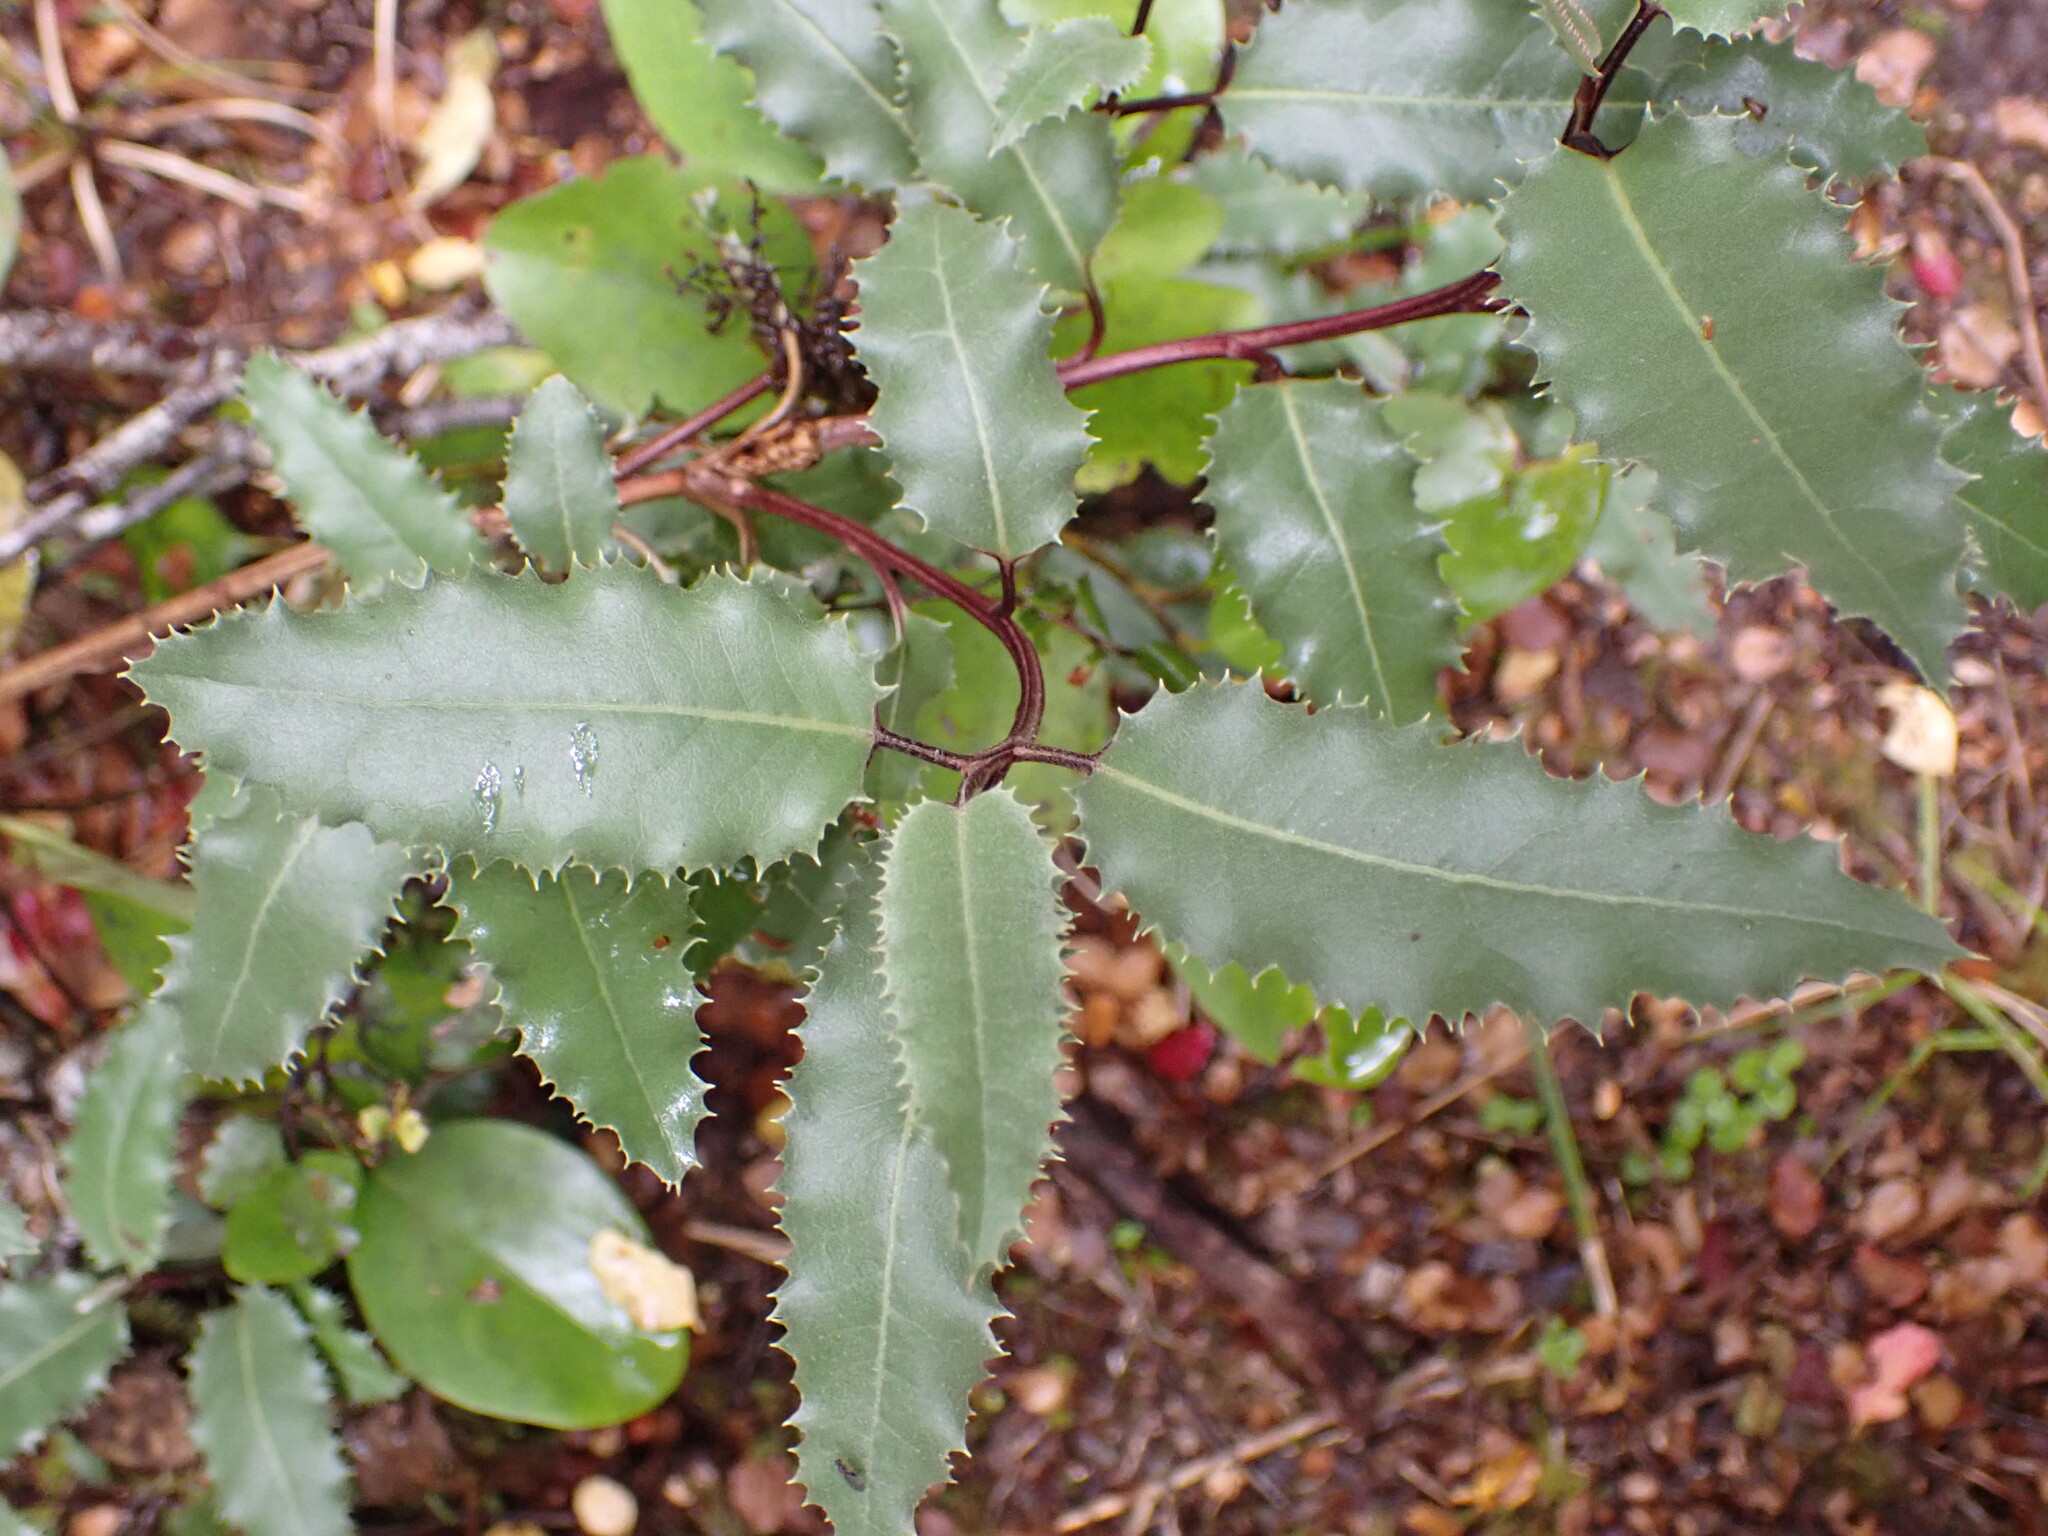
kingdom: Plantae
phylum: Tracheophyta
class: Magnoliopsida
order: Asterales
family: Asteraceae
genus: Olearia
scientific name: Olearia ilicifolia
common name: Maori-holly
